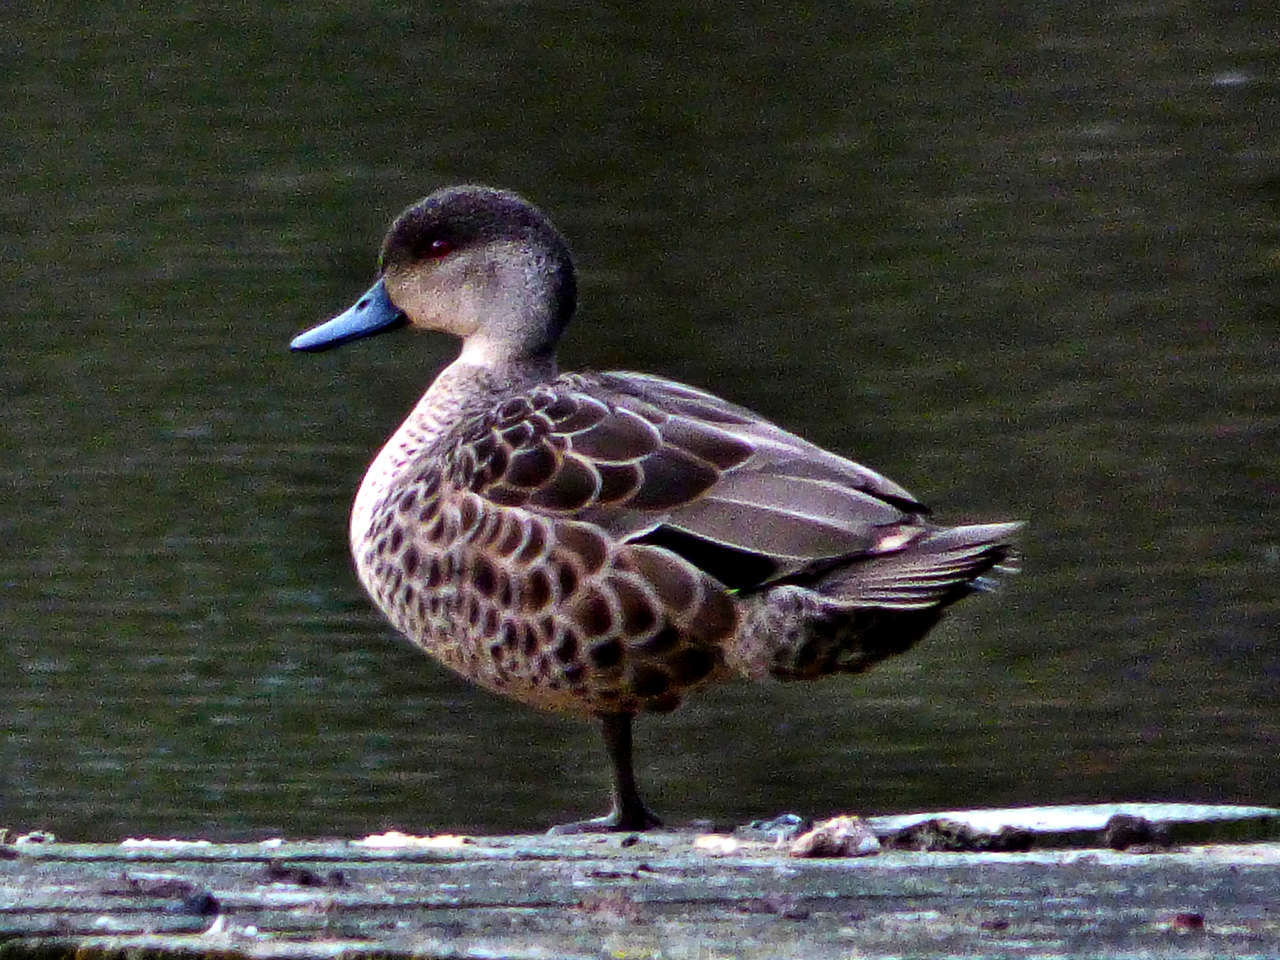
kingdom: Animalia
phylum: Chordata
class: Aves
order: Anseriformes
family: Anatidae
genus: Anas
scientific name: Anas castanea
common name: Chestnut teal
